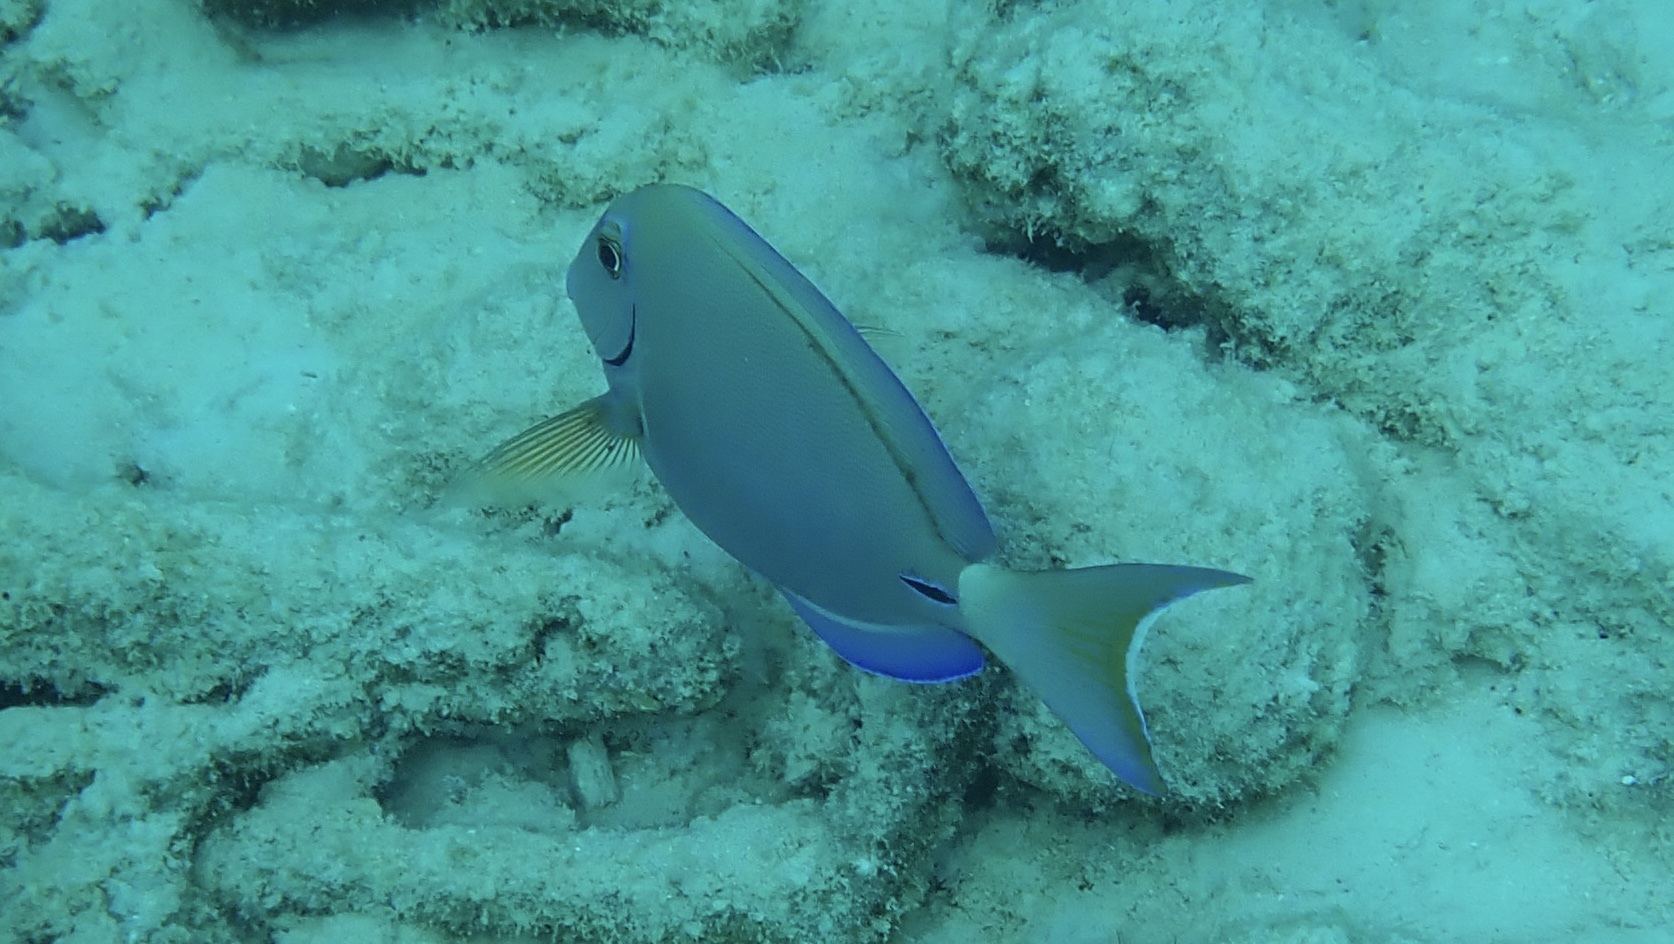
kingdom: Animalia
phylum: Chordata
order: Perciformes
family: Acanthuridae
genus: Acanthurus
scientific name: Acanthurus bahianus
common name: Ocean surgeon
